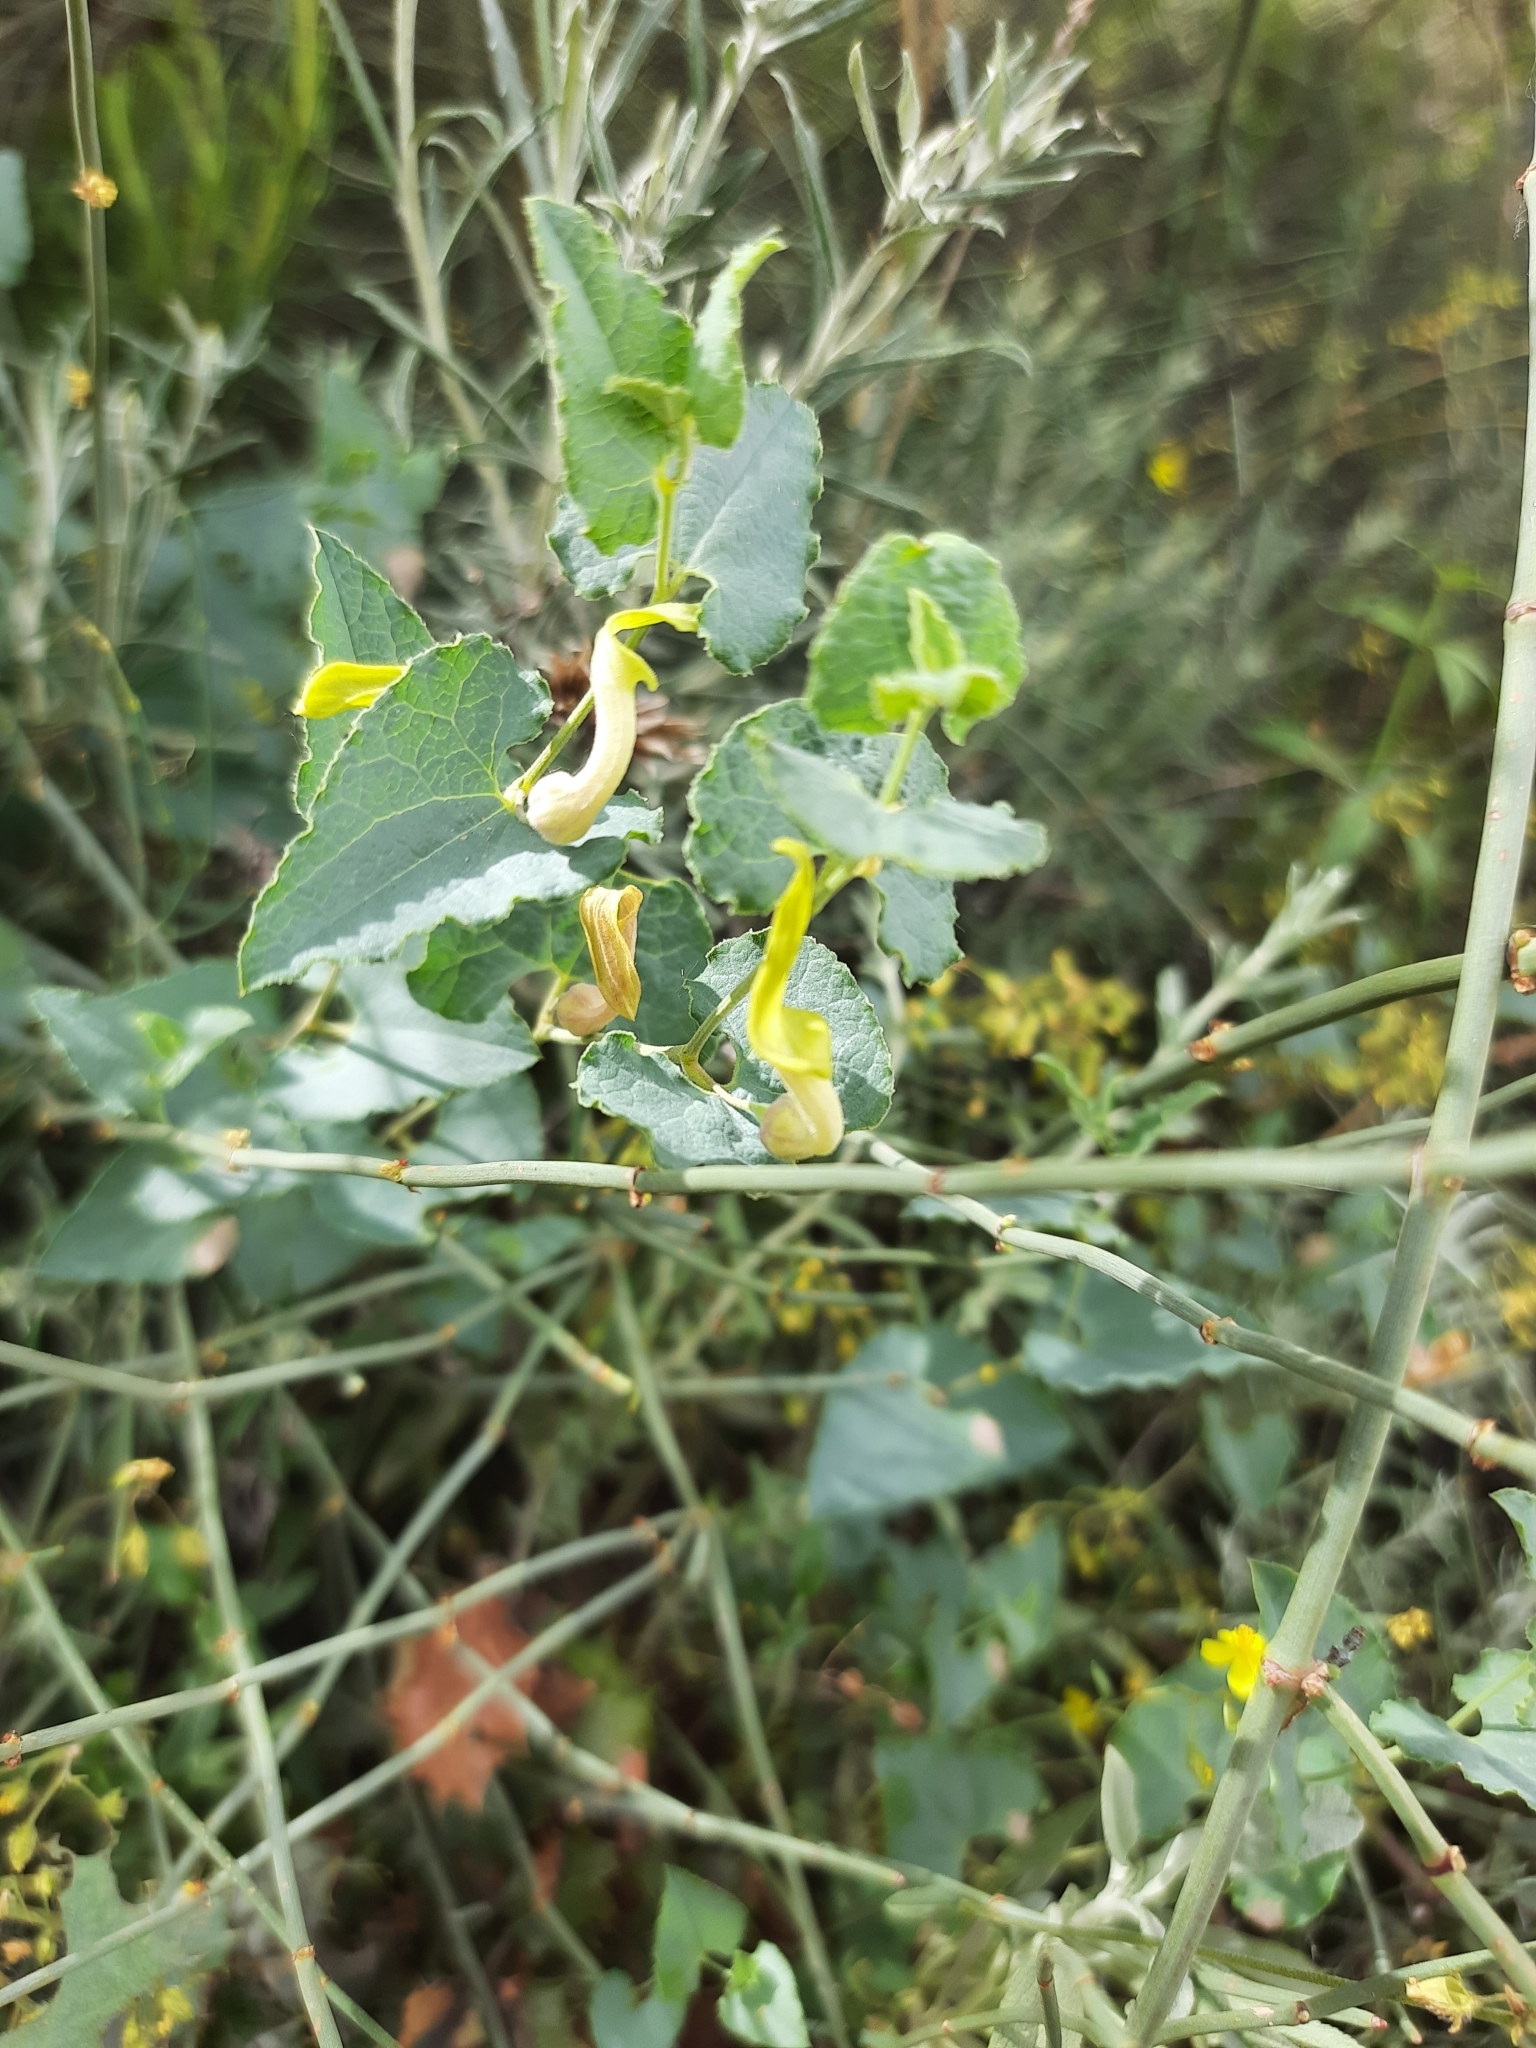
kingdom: Plantae
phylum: Tracheophyta
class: Magnoliopsida
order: Piperales
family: Aristolochiaceae
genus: Aristolochia
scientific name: Aristolochia paucinervis
